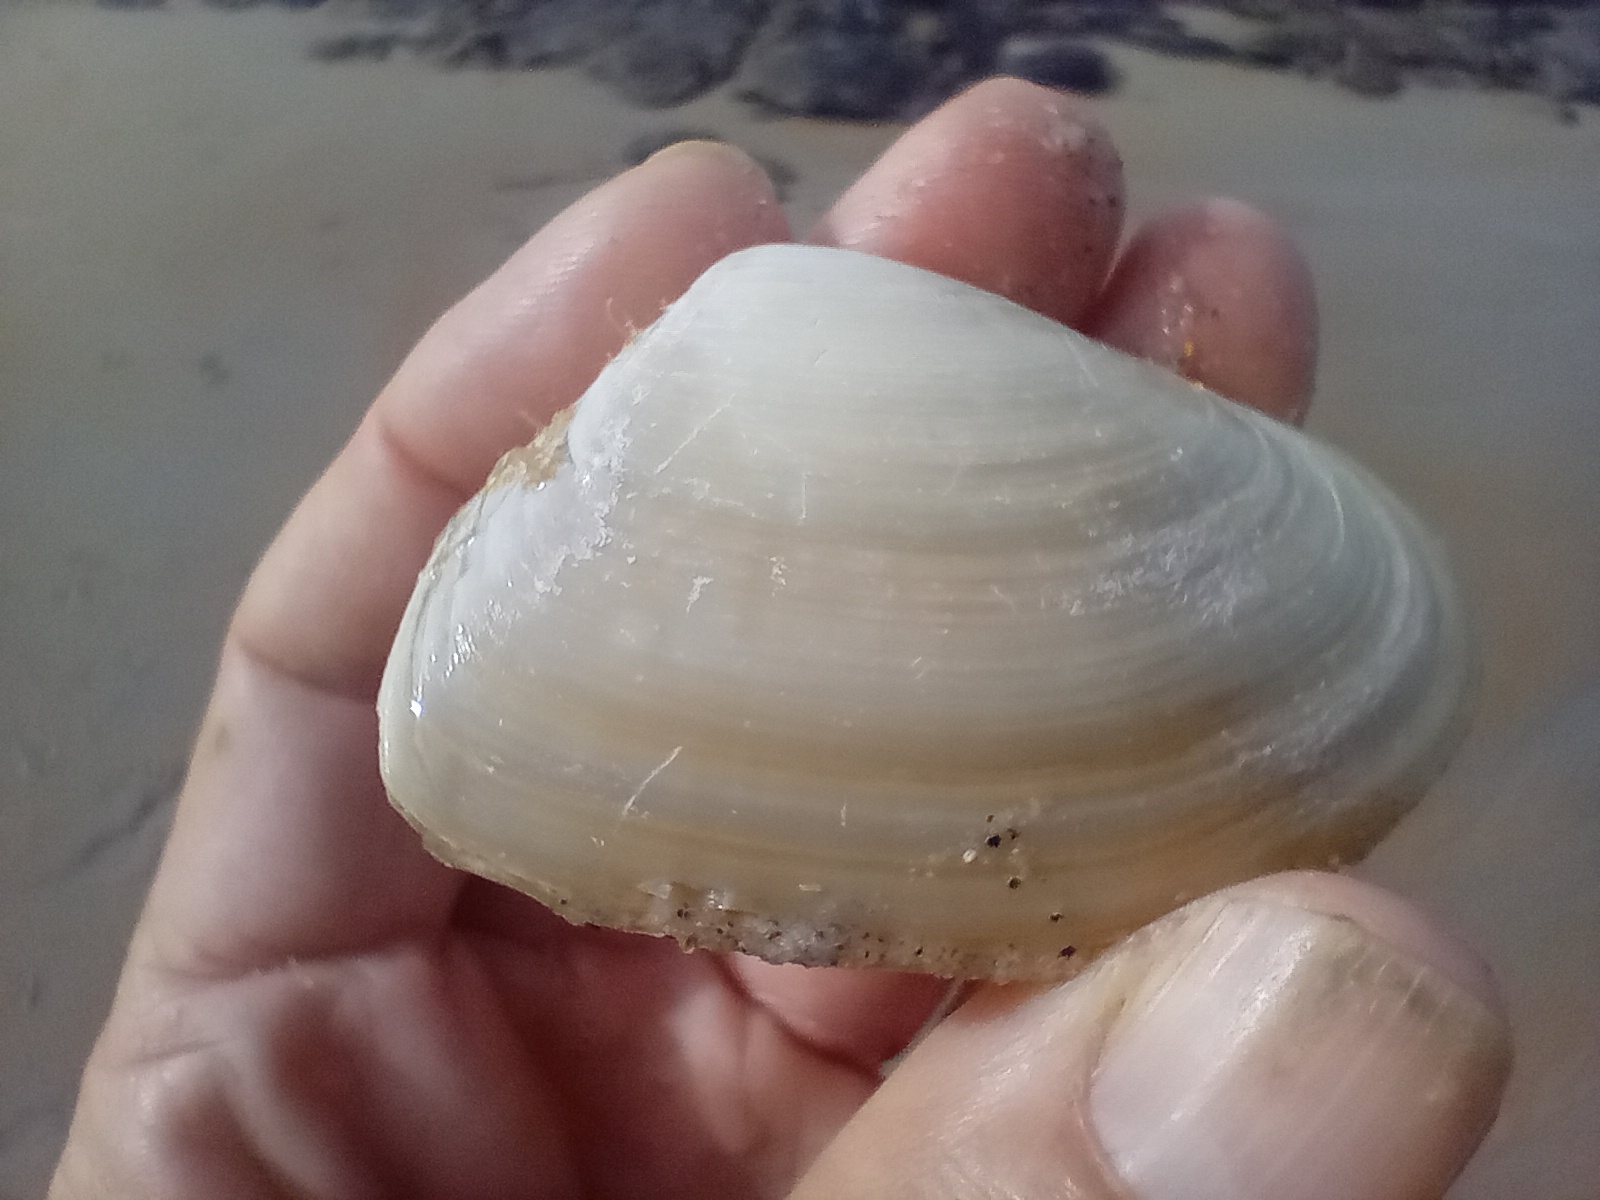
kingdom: Animalia
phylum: Mollusca
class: Bivalvia
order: Venerida
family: Mesodesmatidae
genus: Paphies
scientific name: Paphies donacina
